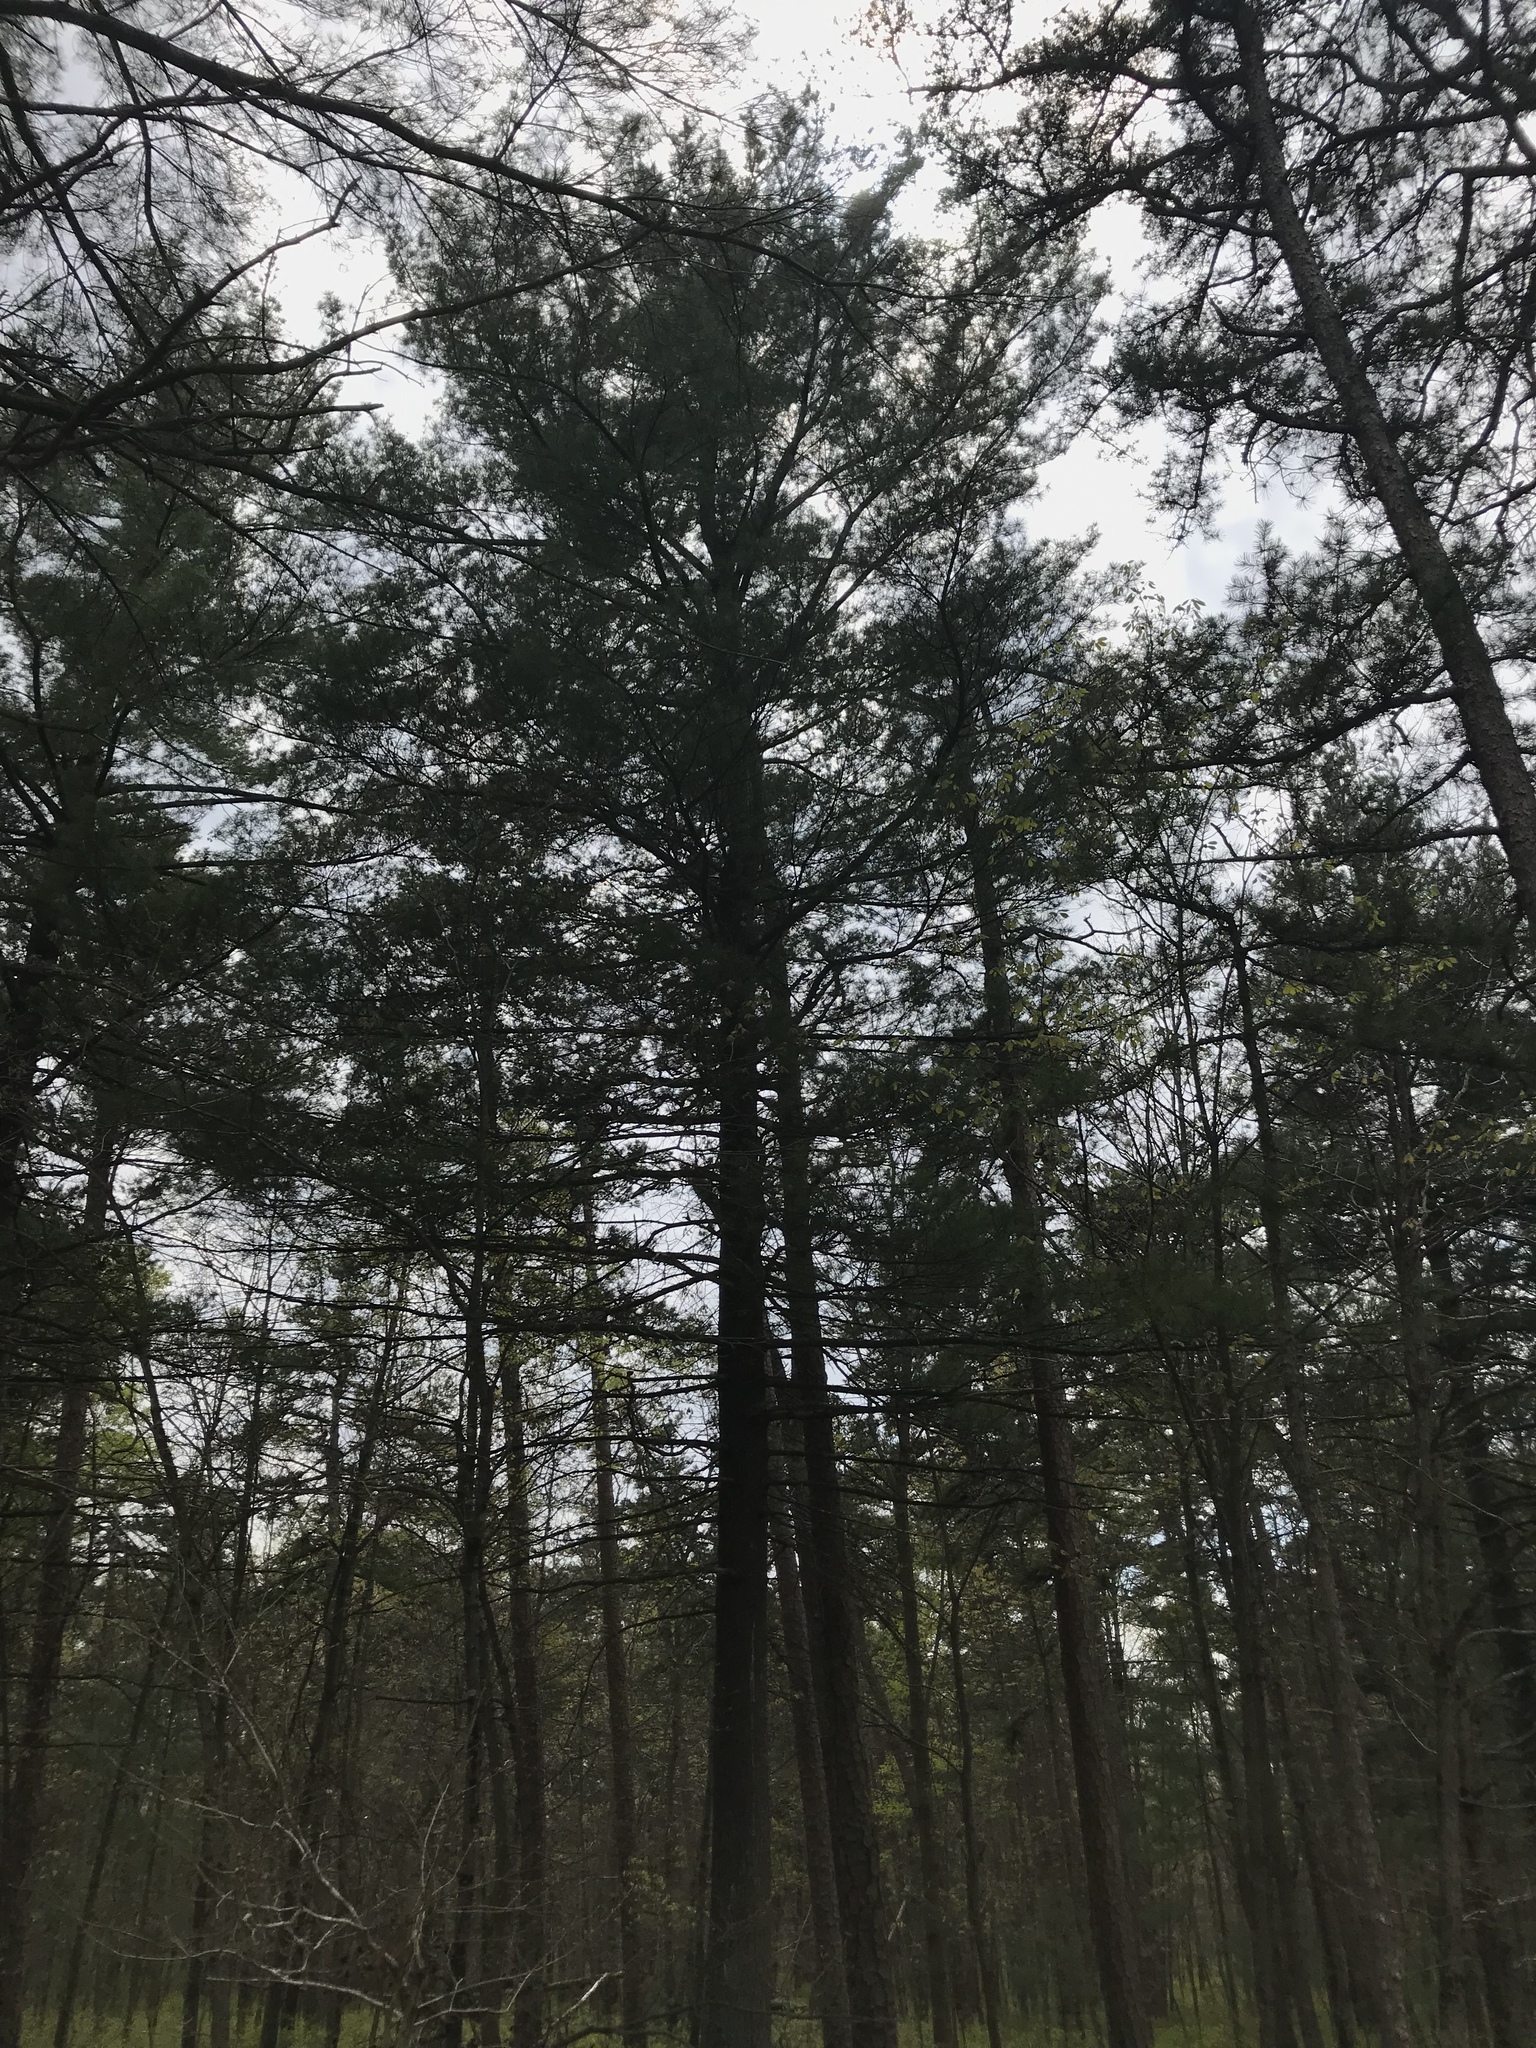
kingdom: Plantae
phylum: Tracheophyta
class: Pinopsida
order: Pinales
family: Pinaceae
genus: Pinus
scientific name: Pinus strobus
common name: Weymouth pine
